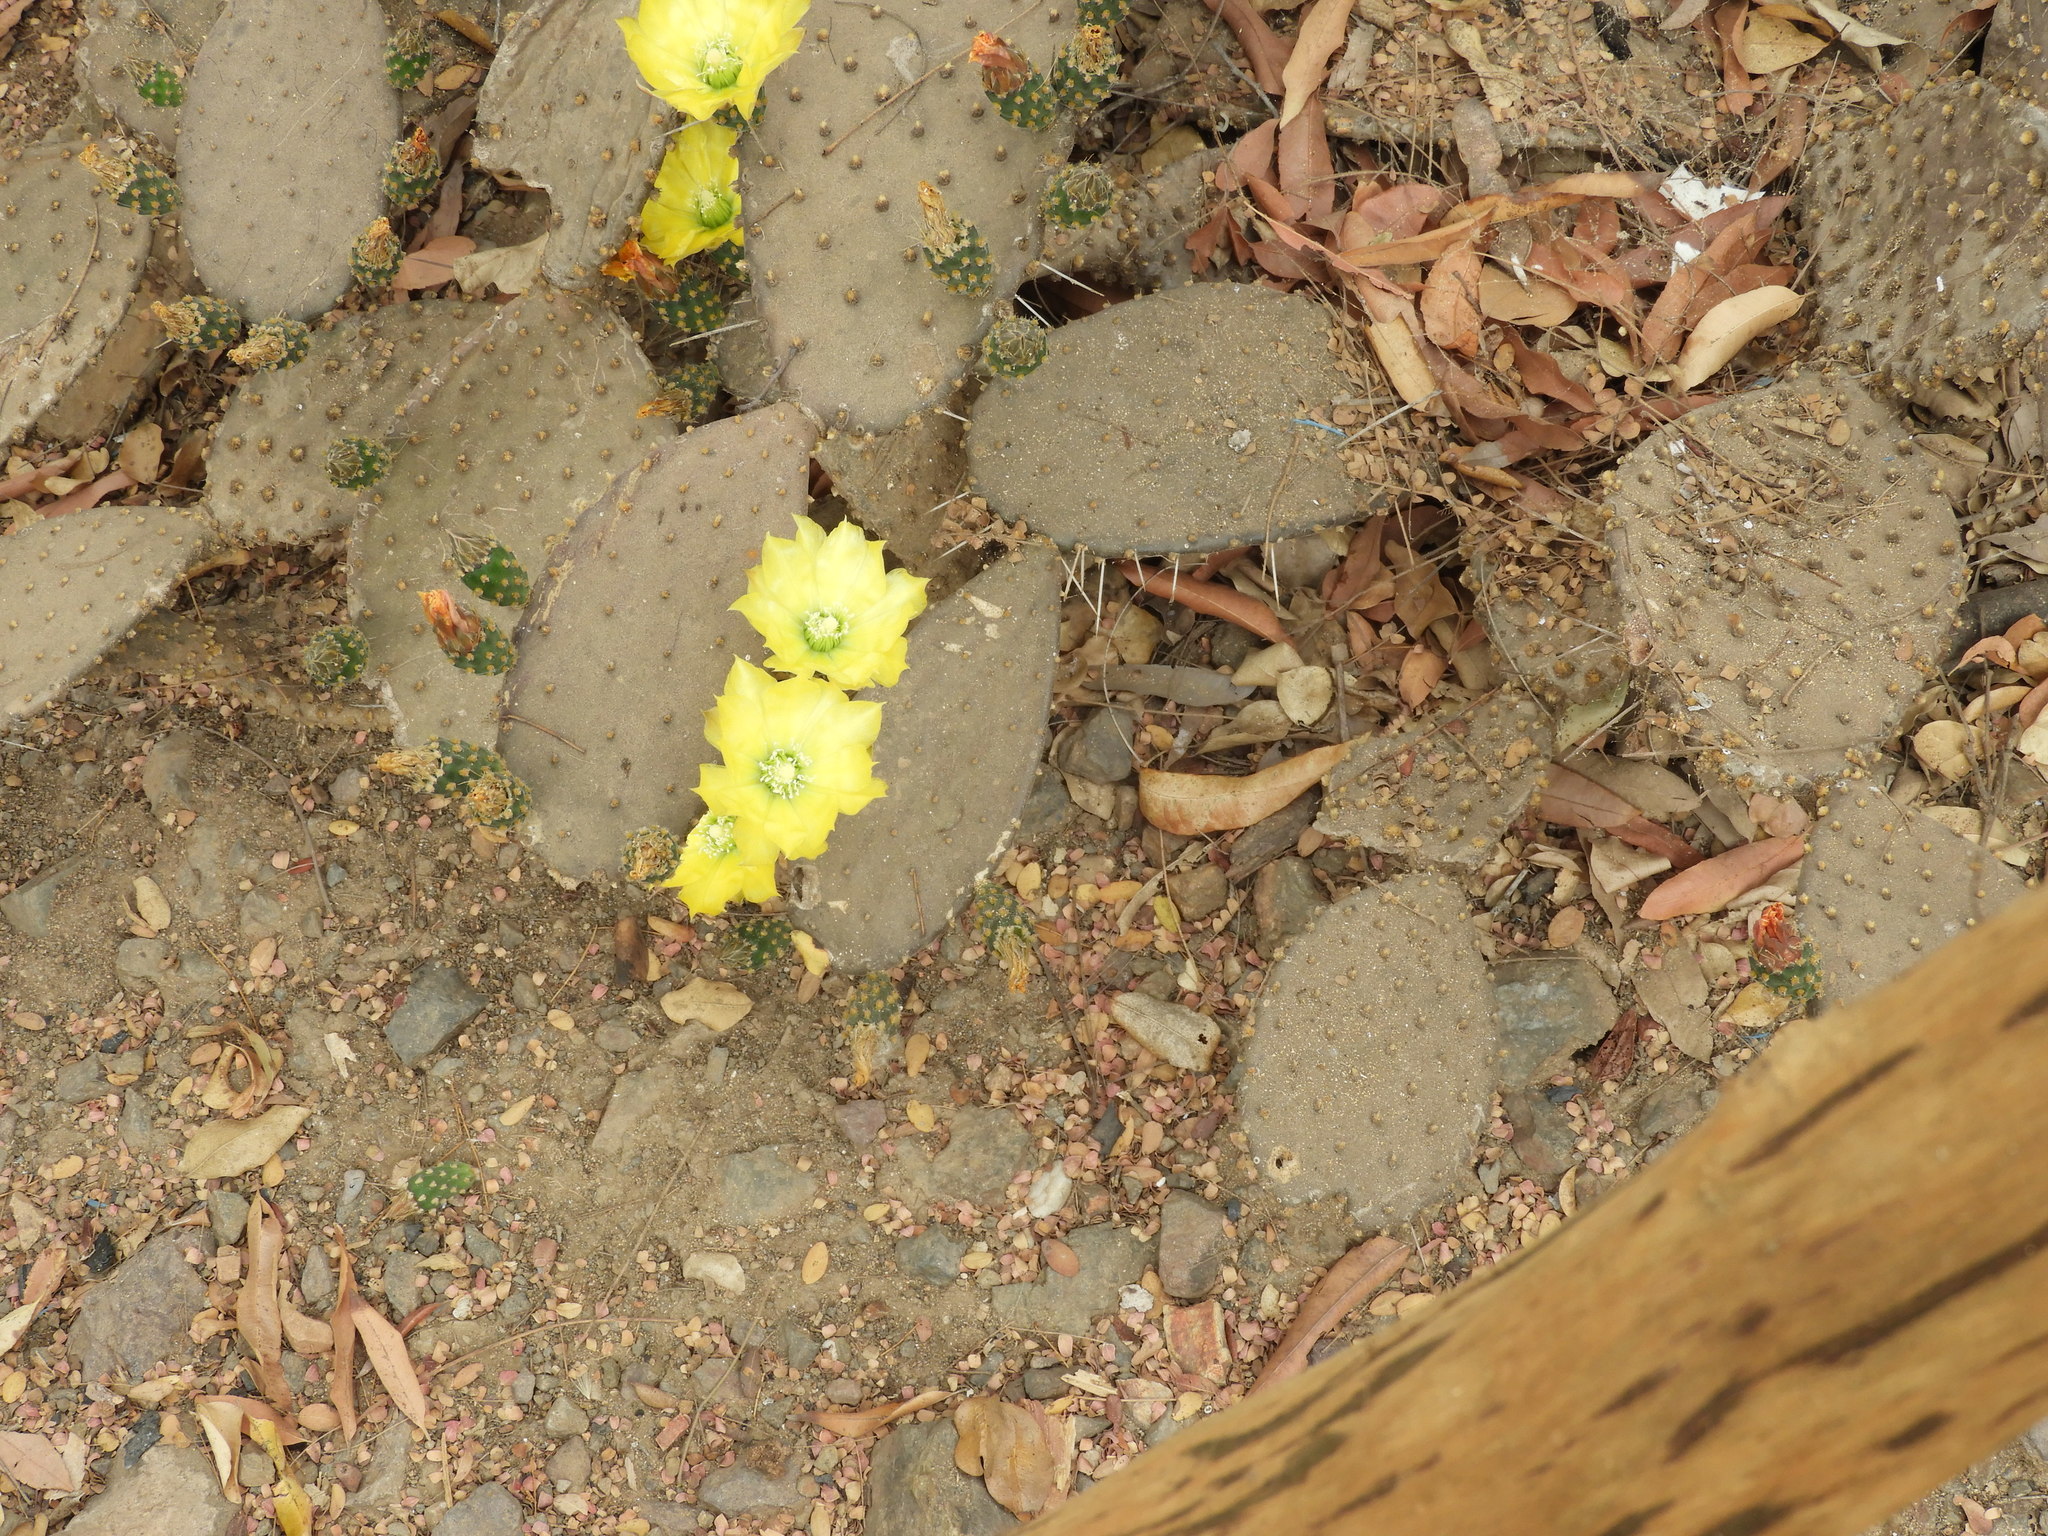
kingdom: Plantae
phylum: Tracheophyta
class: Magnoliopsida
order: Caryophyllales
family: Cactaceae
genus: Opuntia
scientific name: Opuntia decumbens
